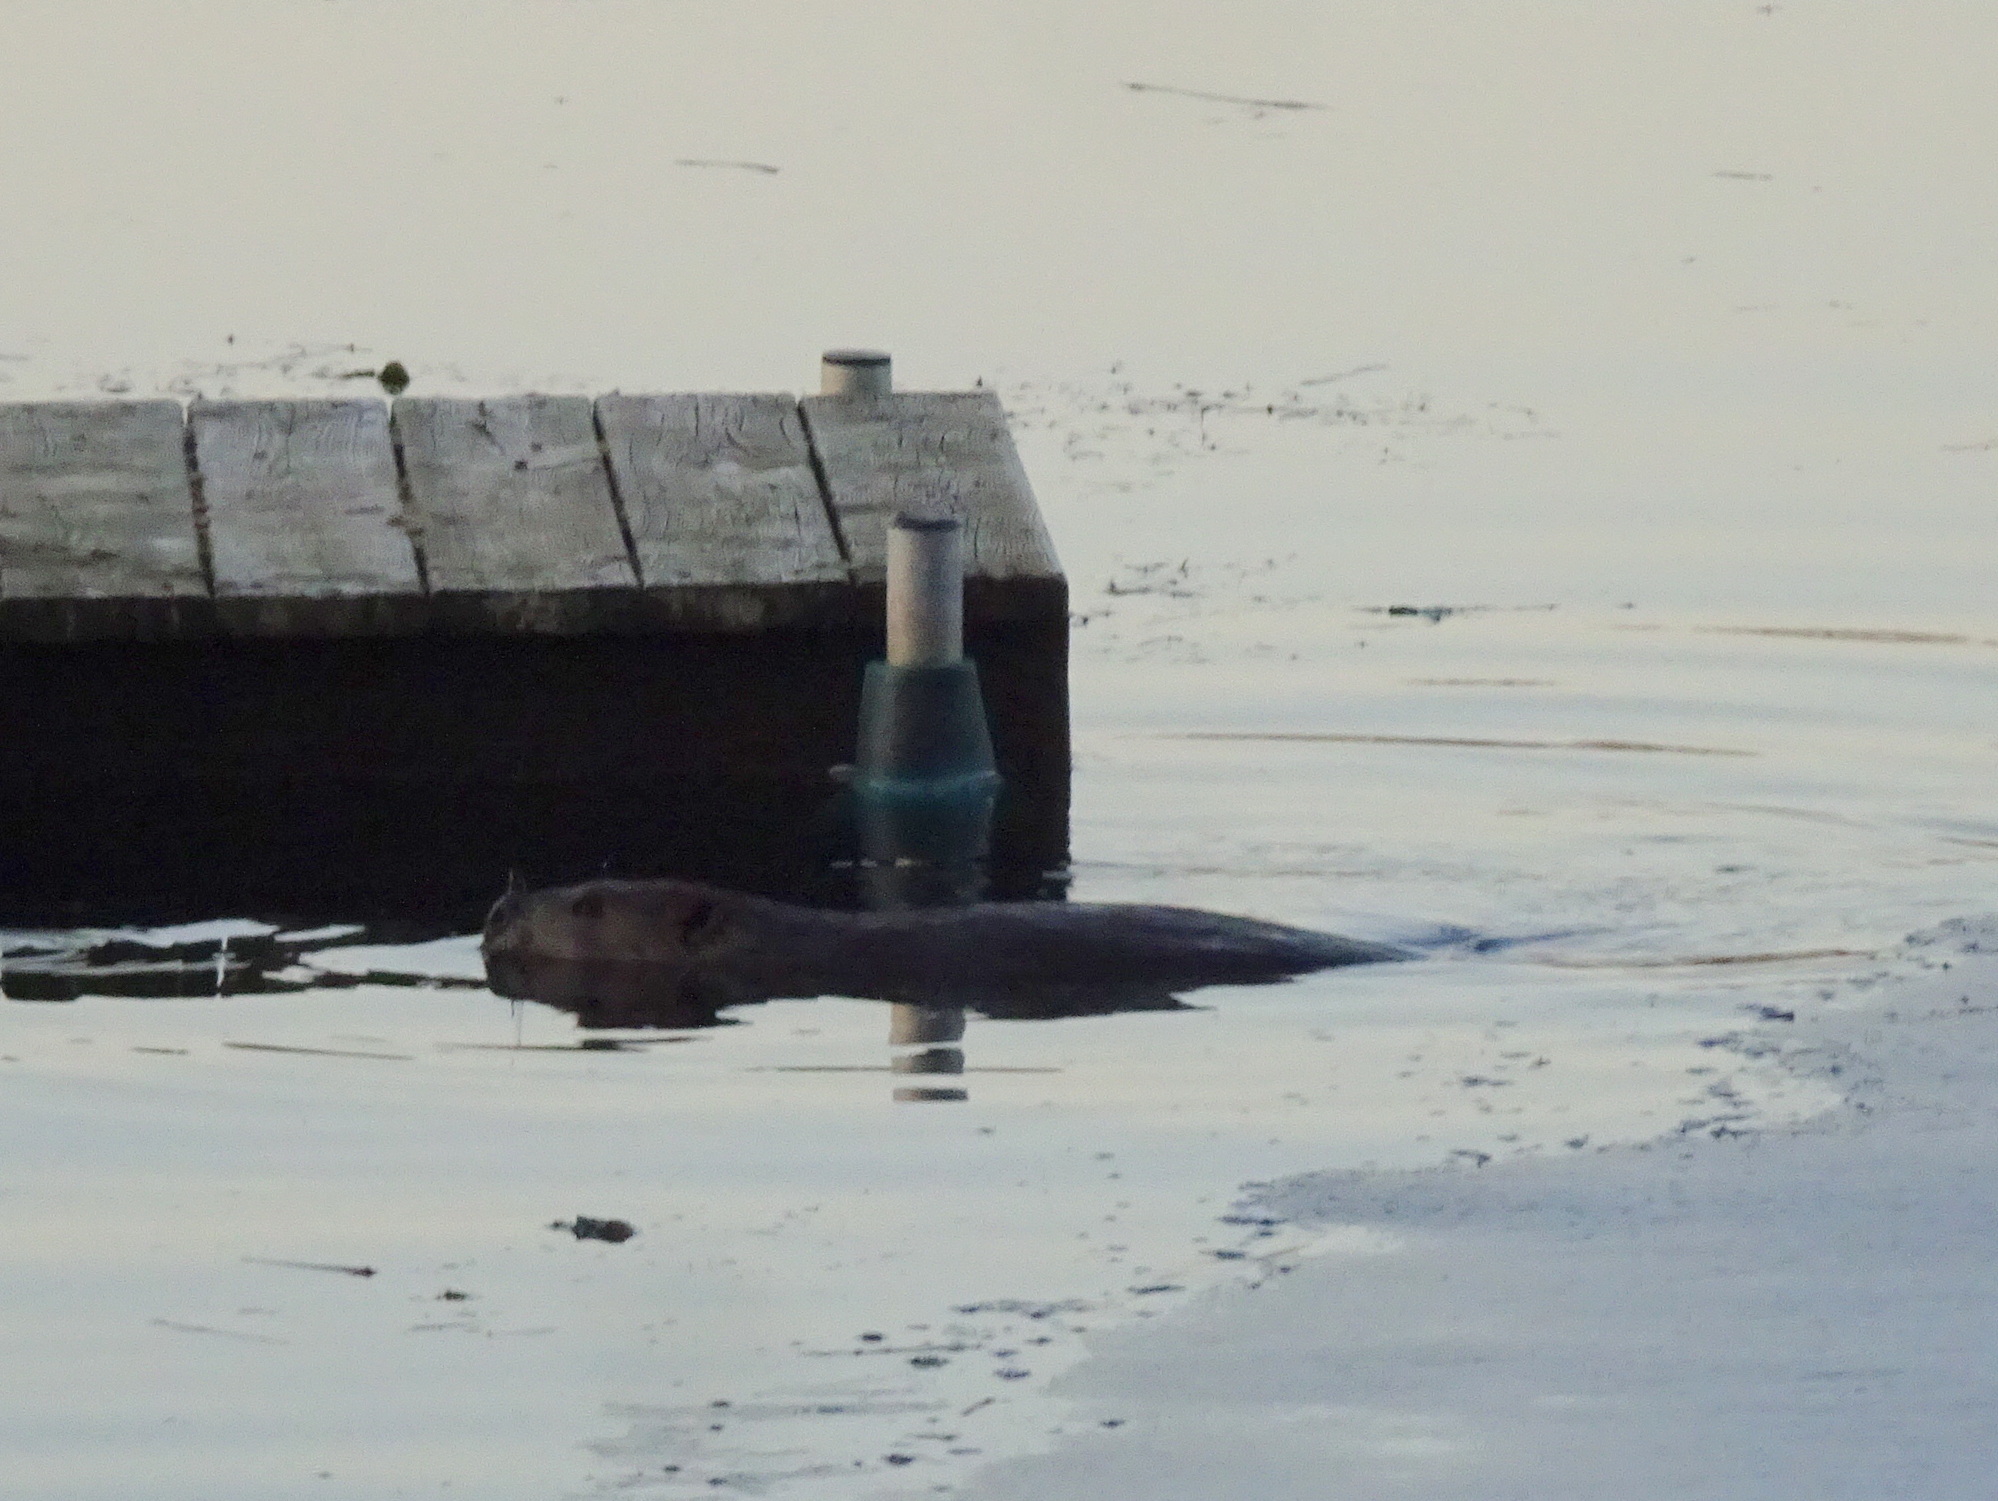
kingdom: Animalia
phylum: Chordata
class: Mammalia
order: Rodentia
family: Castoridae
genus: Castor
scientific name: Castor canadensis
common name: American beaver
